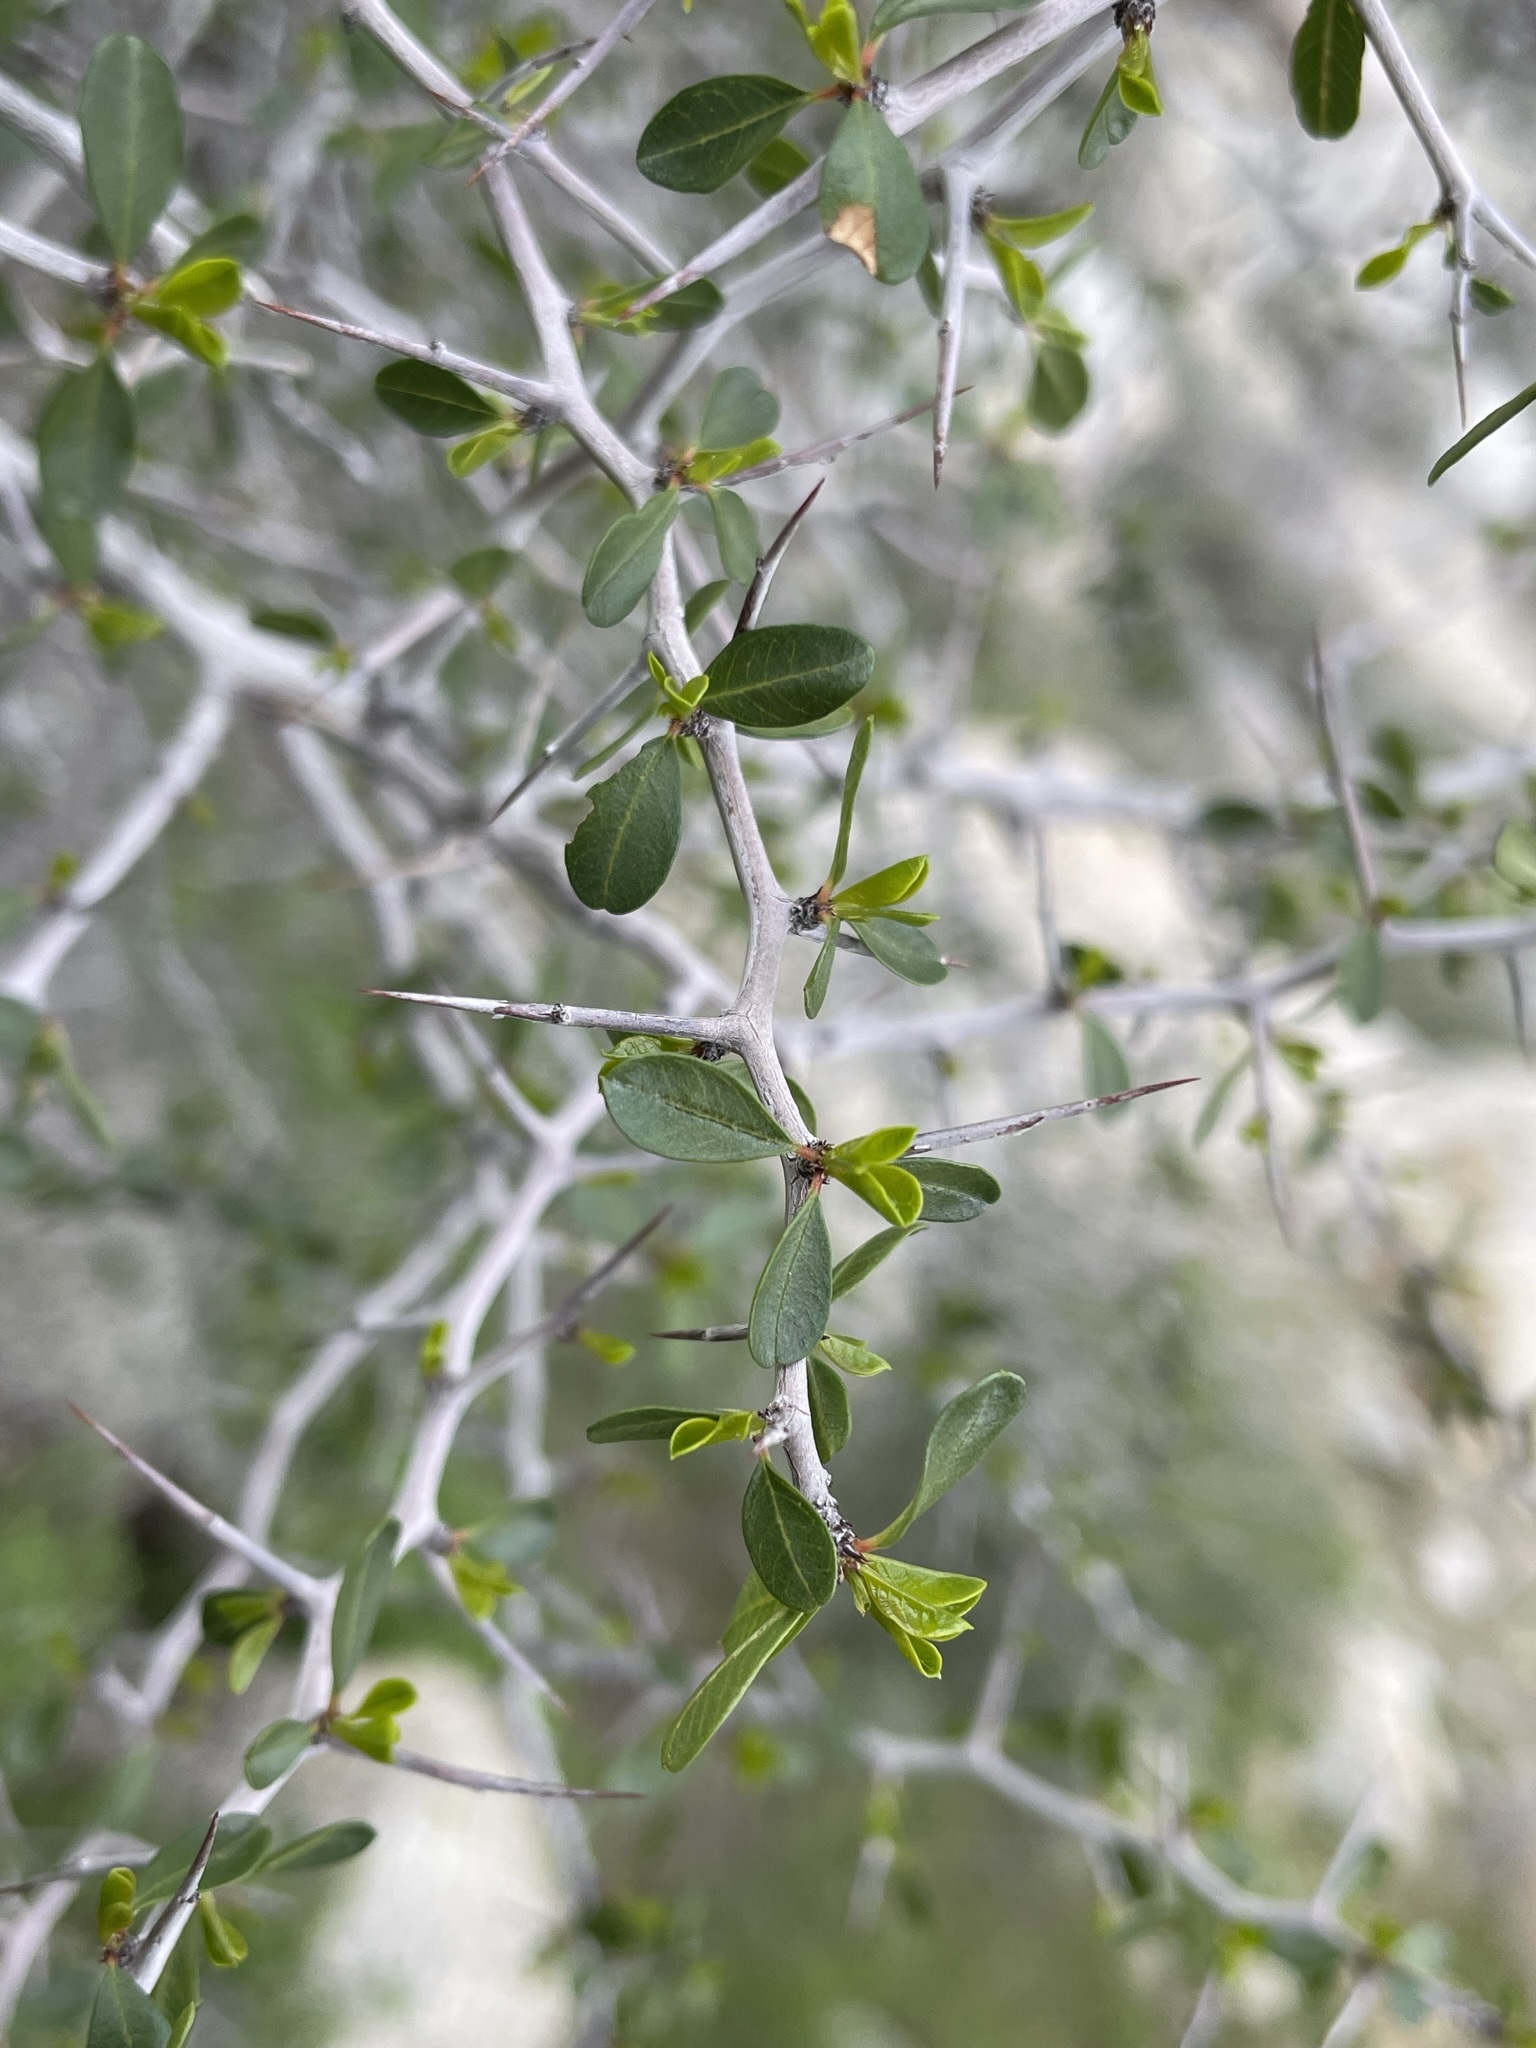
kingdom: Plantae
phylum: Tracheophyta
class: Magnoliopsida
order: Rosales
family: Rhamnaceae
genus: Pseudoziziphus
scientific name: Pseudoziziphus parryi
